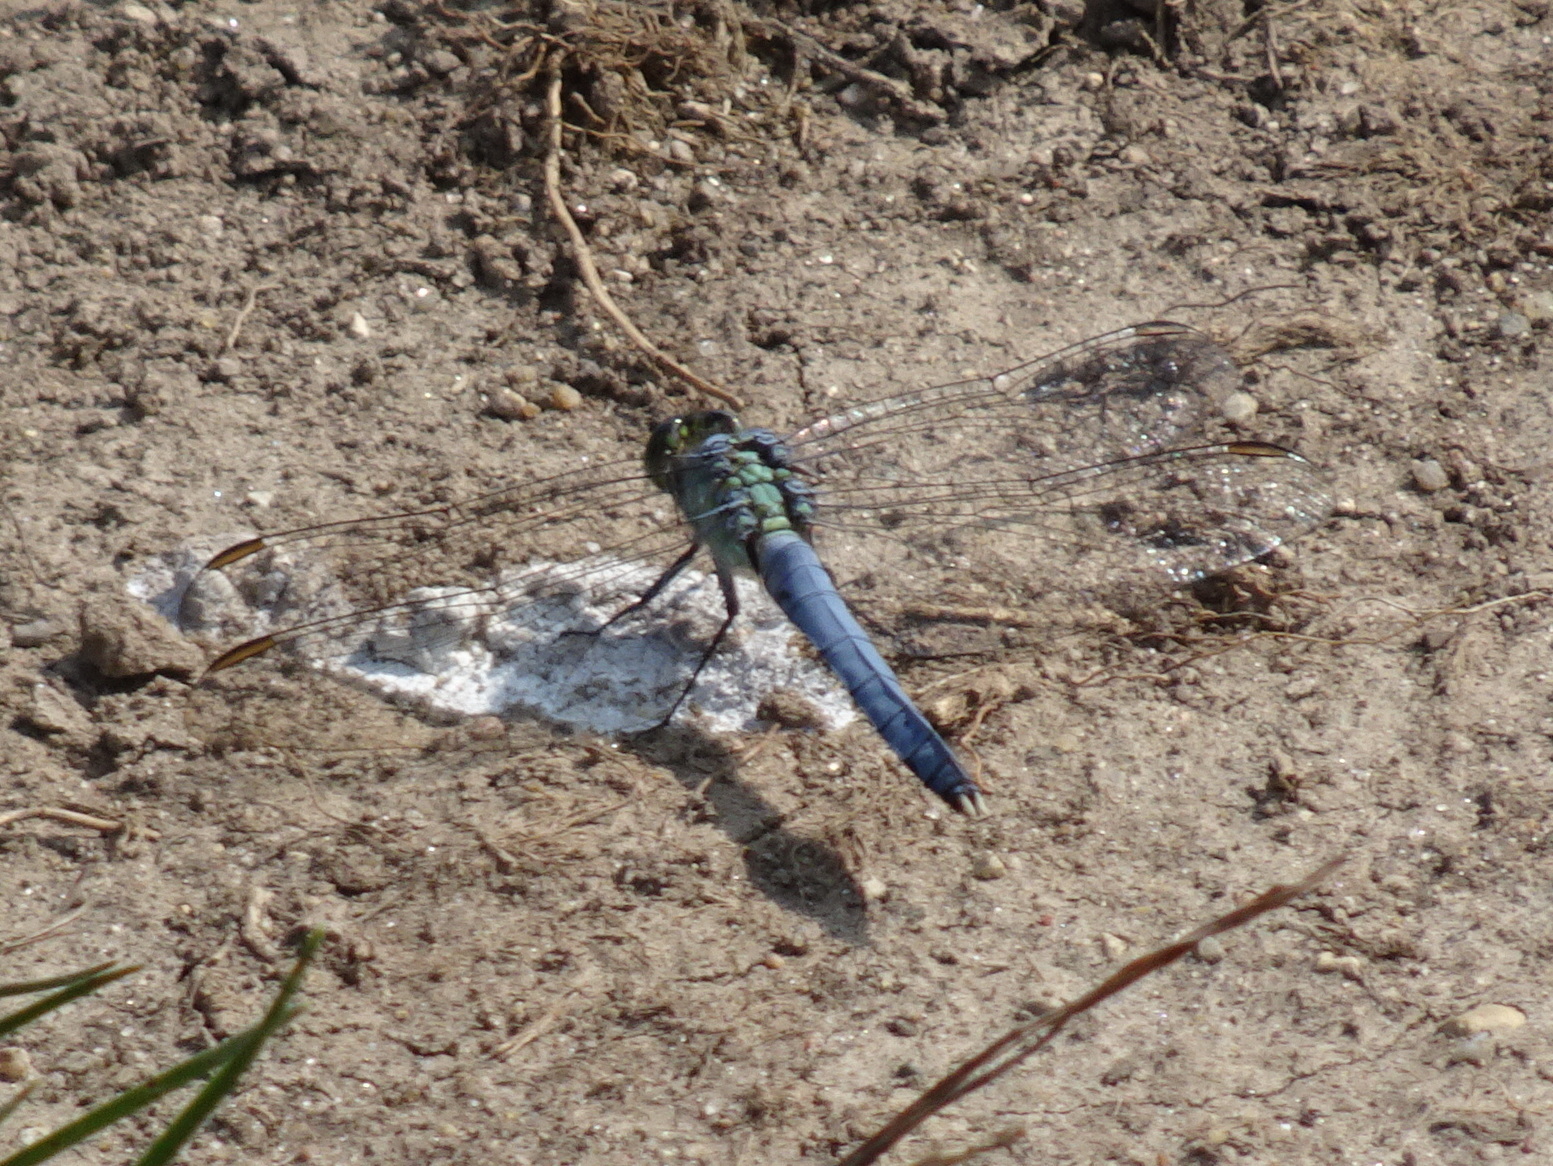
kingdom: Animalia
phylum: Arthropoda
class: Insecta
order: Odonata
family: Libellulidae
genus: Erythemis
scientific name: Erythemis simplicicollis
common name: Eastern pondhawk
